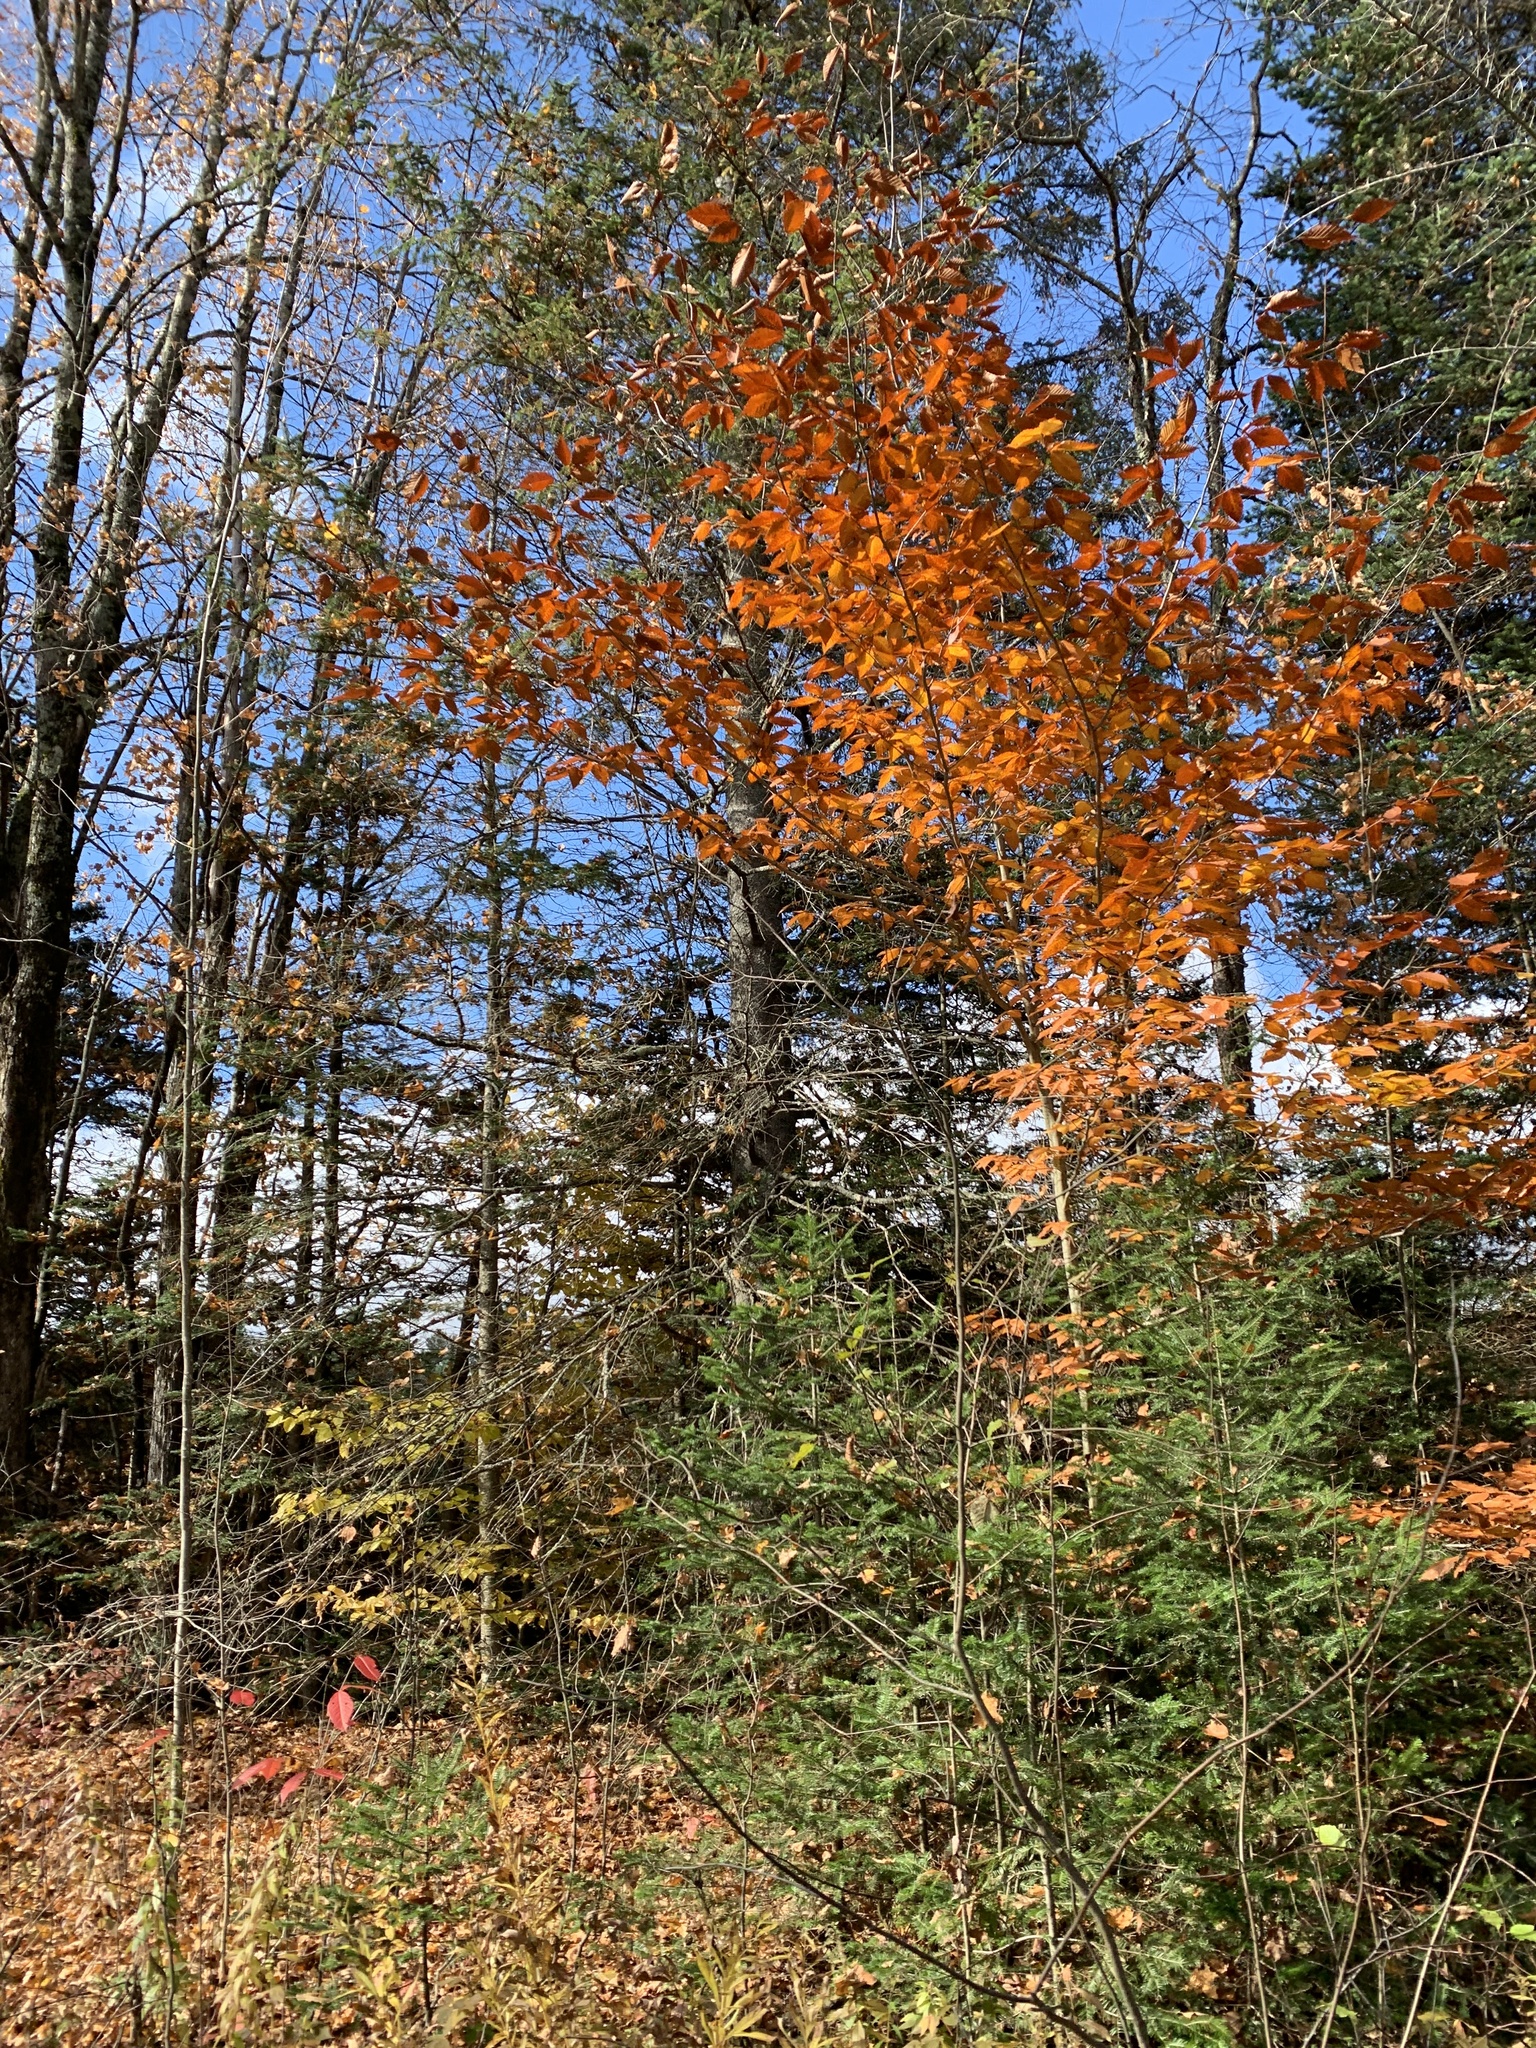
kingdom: Plantae
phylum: Tracheophyta
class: Magnoliopsida
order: Fagales
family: Fagaceae
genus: Fagus
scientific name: Fagus grandifolia
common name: American beech
